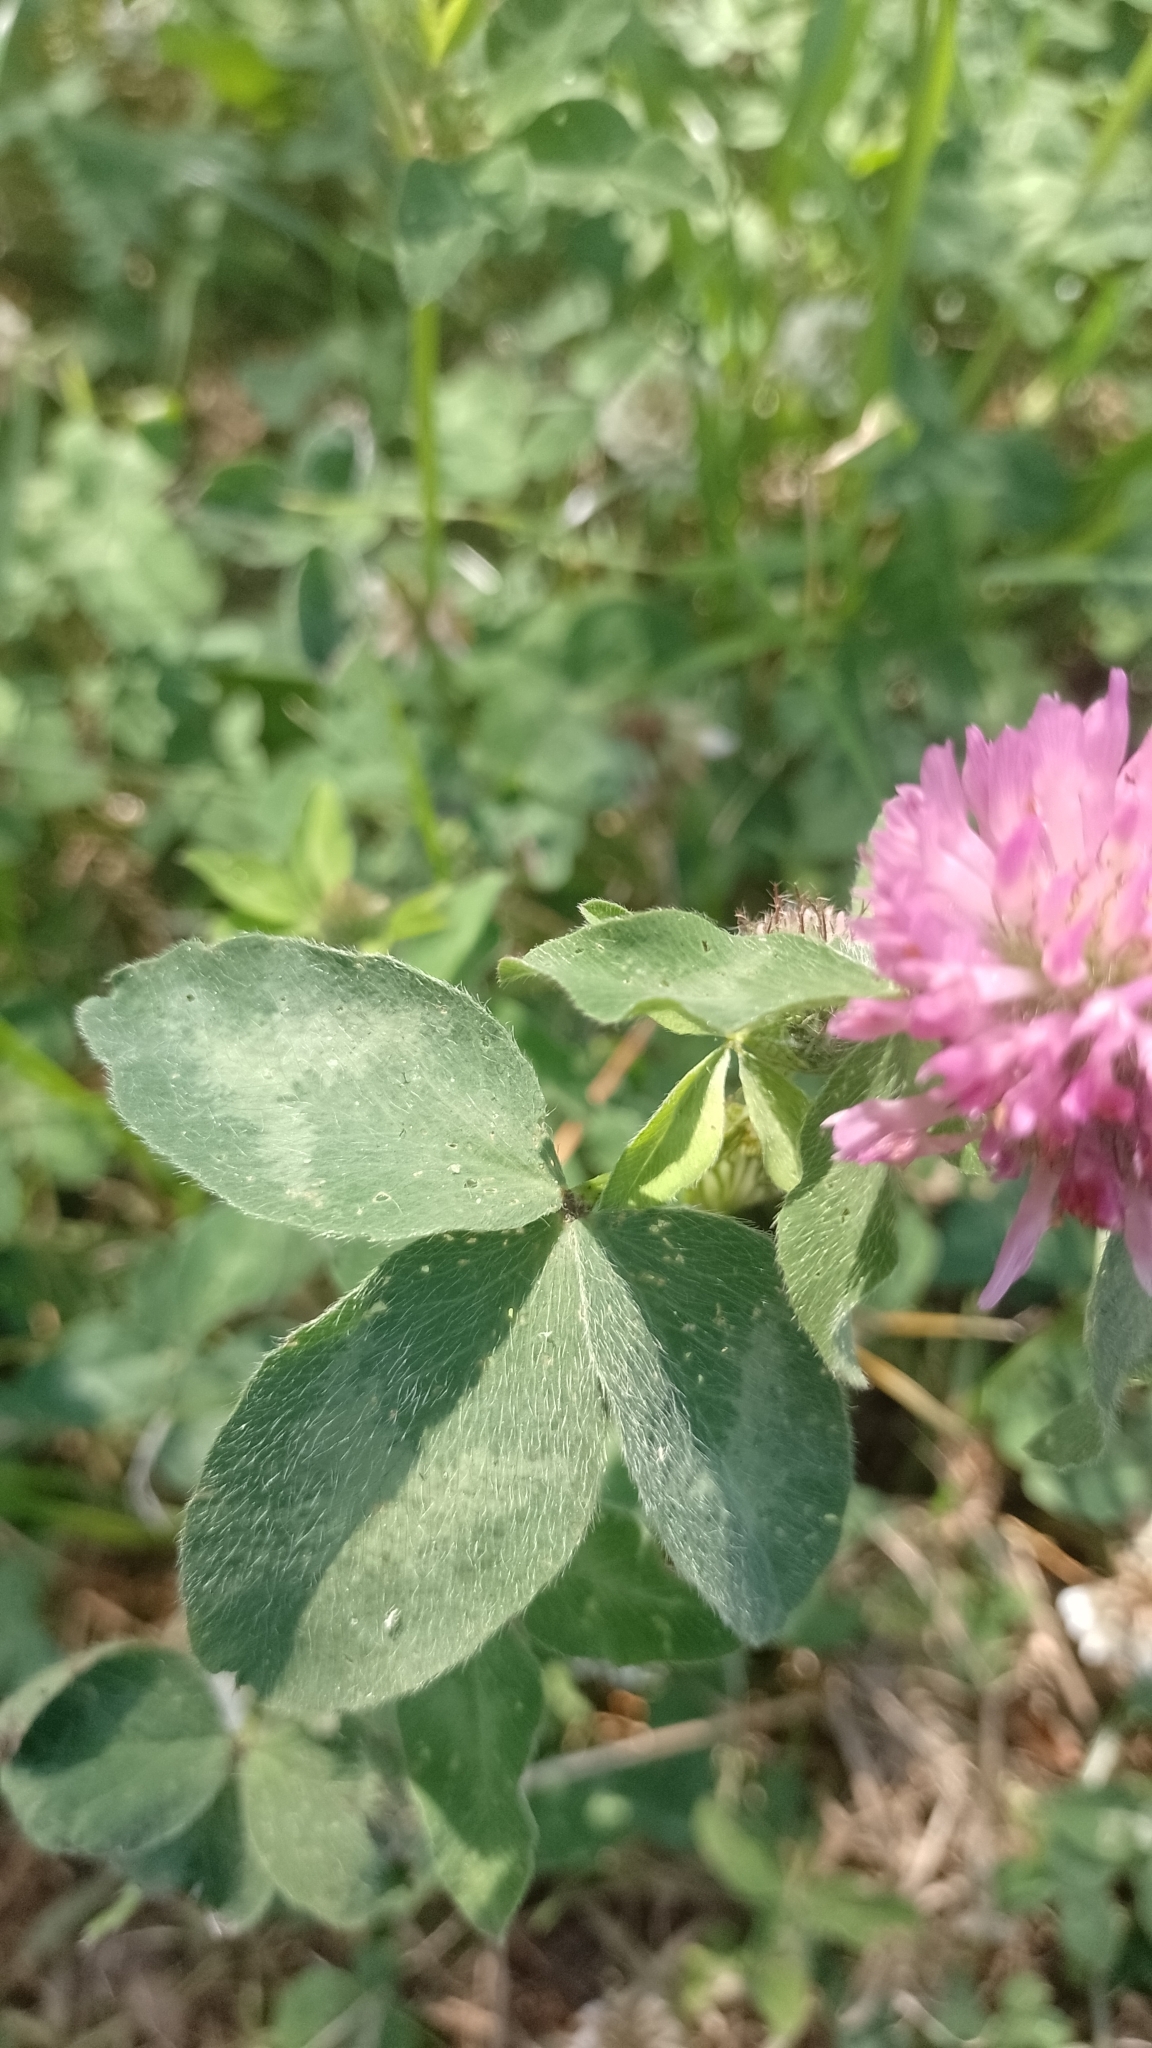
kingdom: Plantae
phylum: Tracheophyta
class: Magnoliopsida
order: Fabales
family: Fabaceae
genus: Trifolium
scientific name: Trifolium pratense
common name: Red clover
